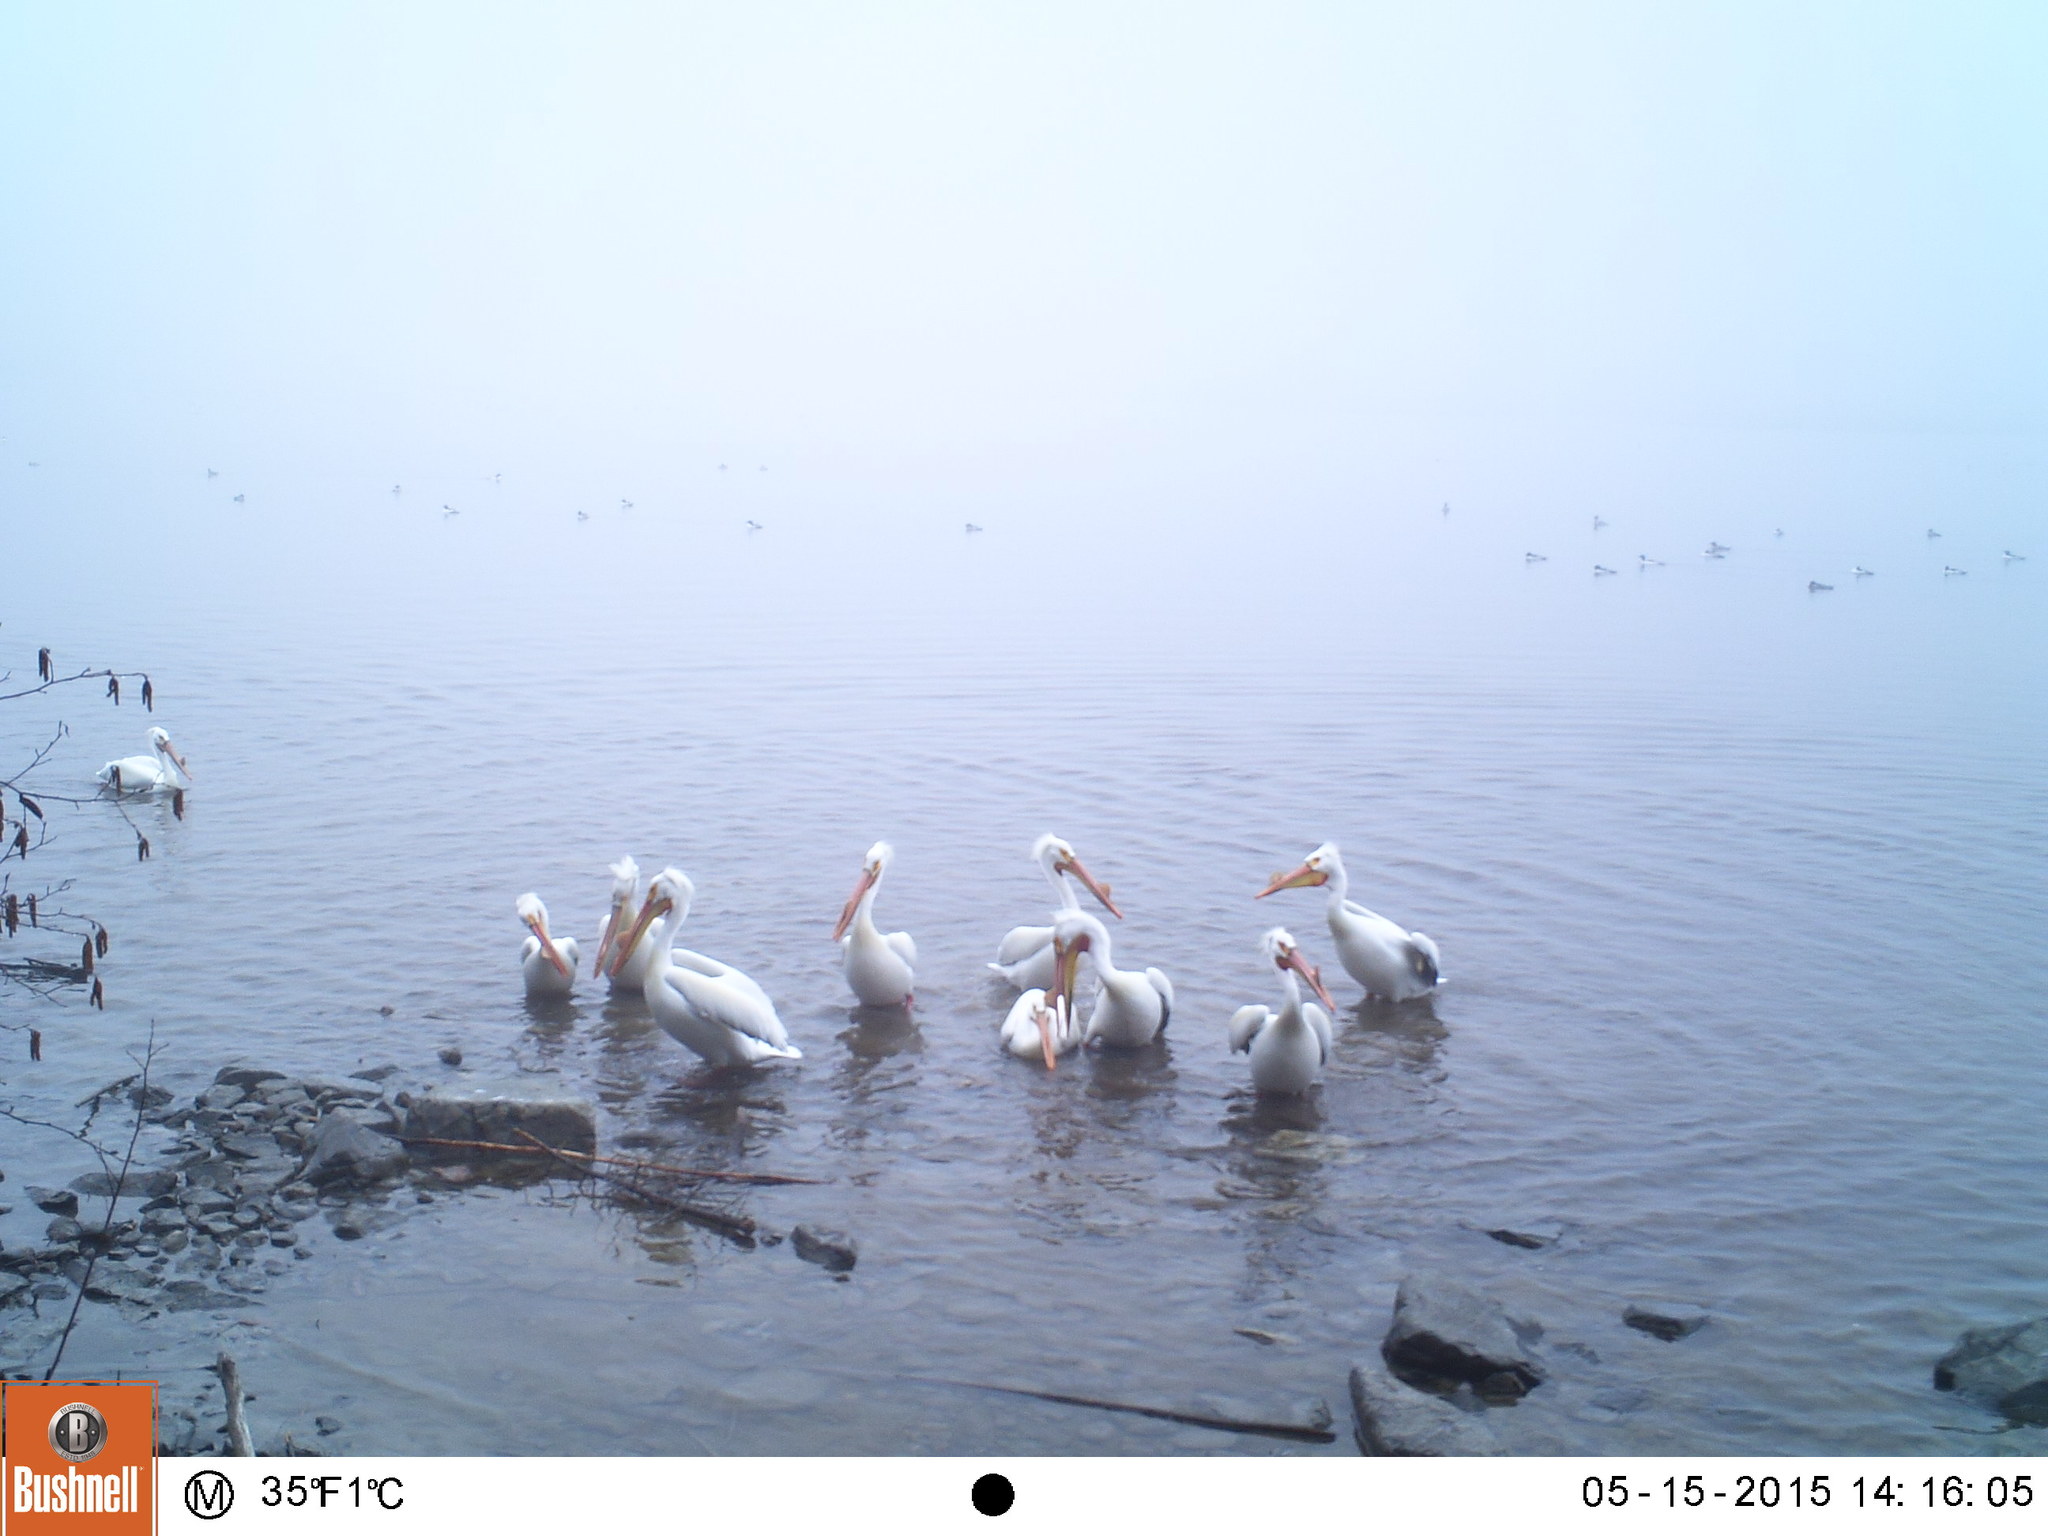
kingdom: Animalia
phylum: Chordata
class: Aves
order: Pelecaniformes
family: Pelecanidae
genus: Pelecanus
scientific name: Pelecanus erythrorhynchos
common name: American white pelican
